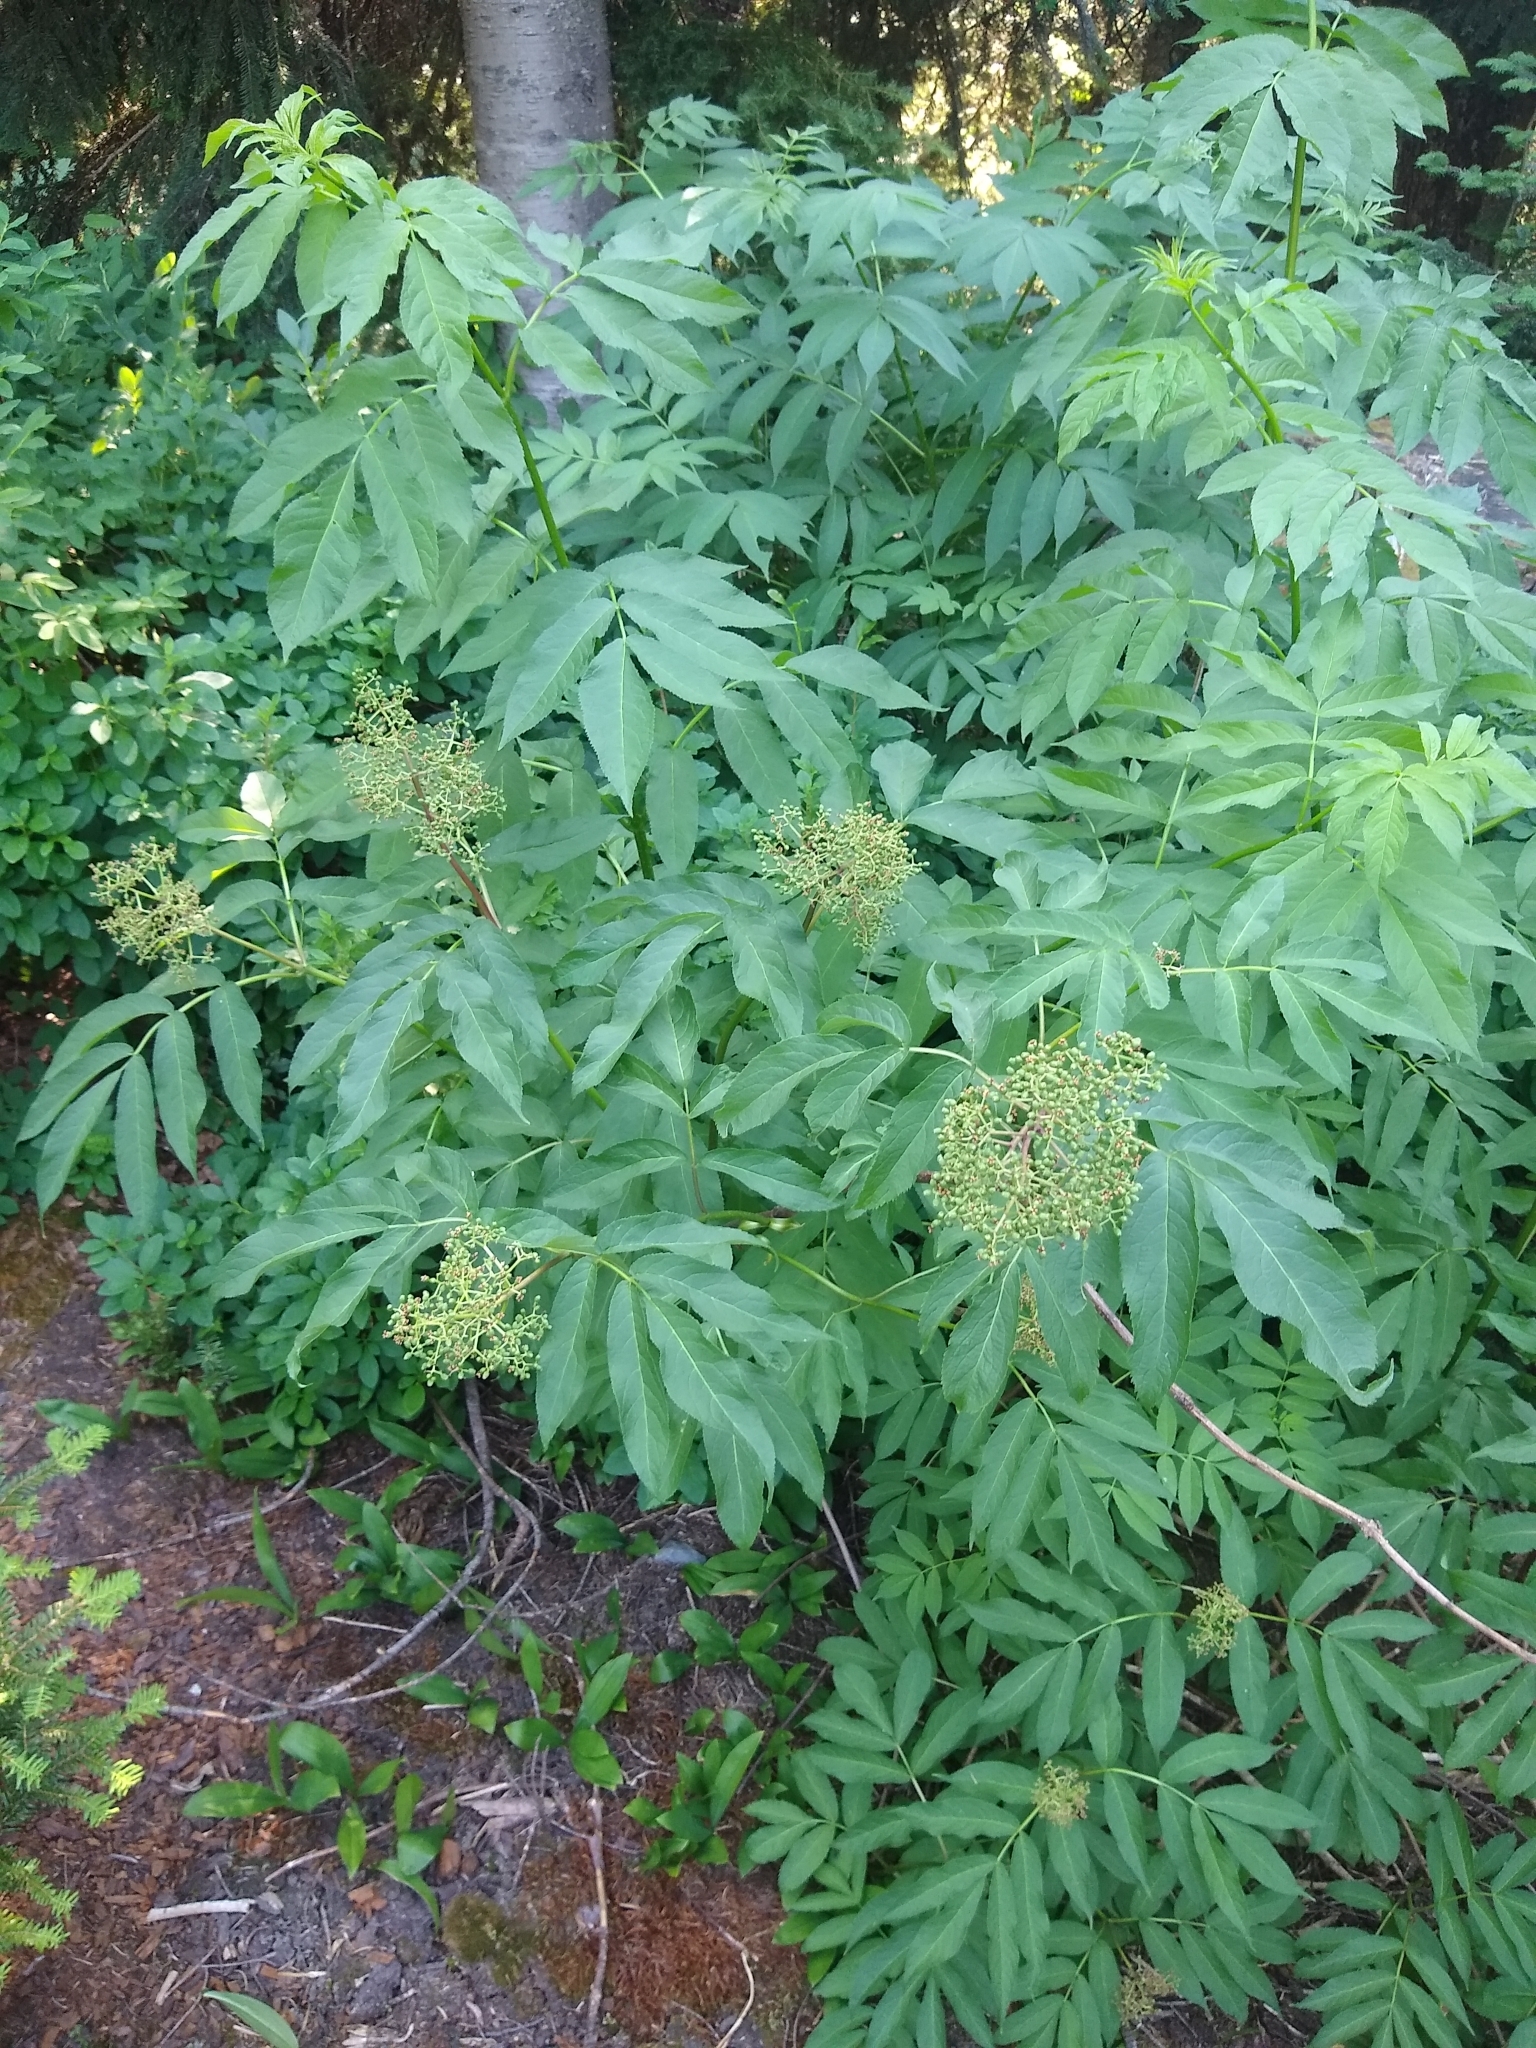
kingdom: Plantae
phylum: Tracheophyta
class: Magnoliopsida
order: Dipsacales
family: Viburnaceae
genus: Sambucus
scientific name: Sambucus racemosa
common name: Red-berried elder
